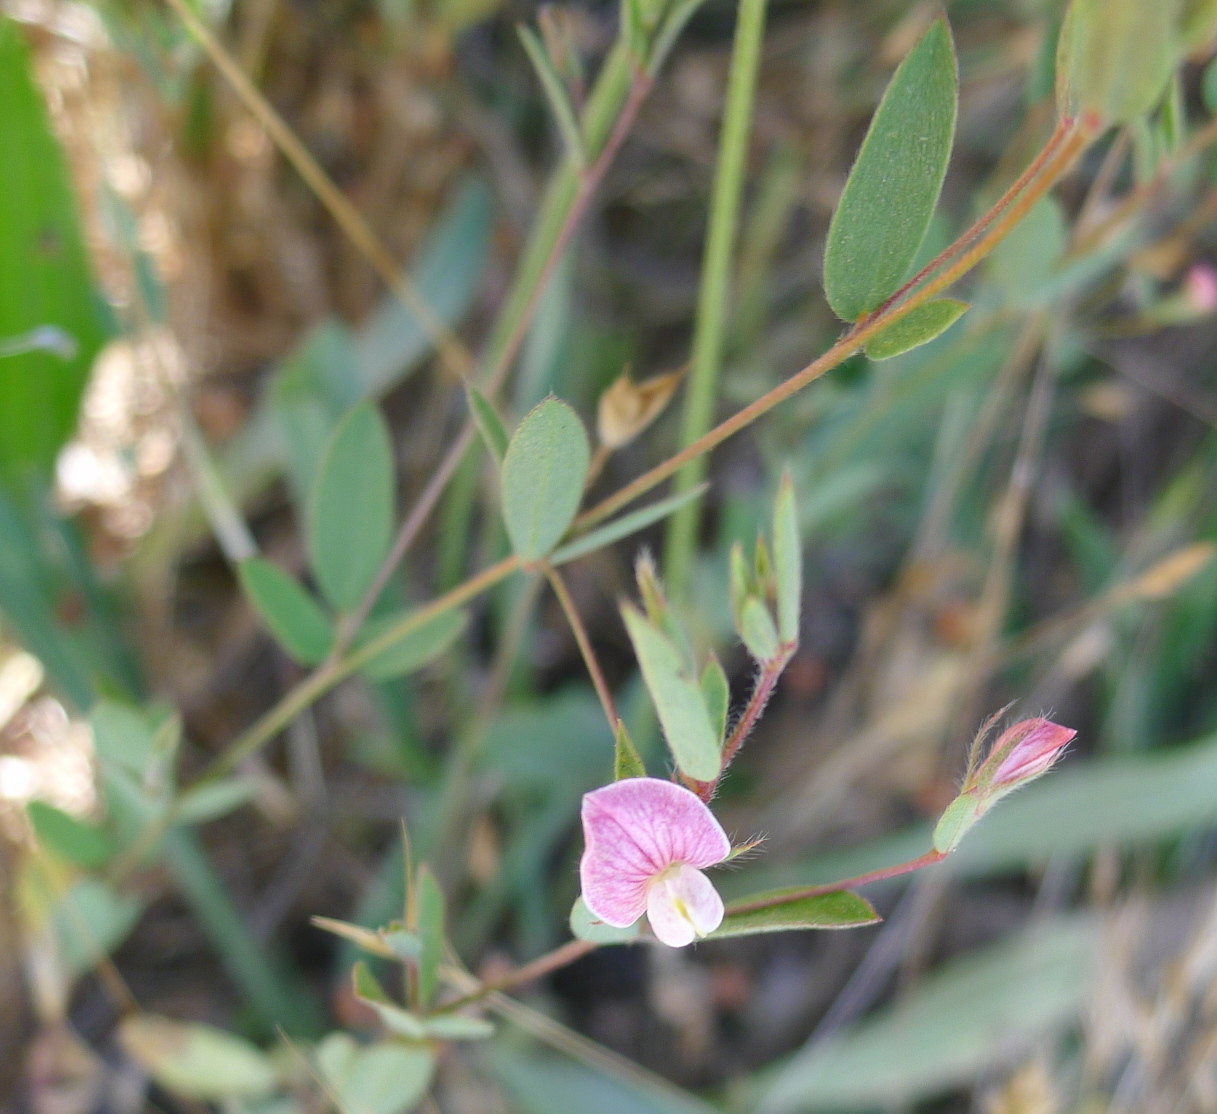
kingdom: Plantae
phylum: Tracheophyta
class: Magnoliopsida
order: Fabales
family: Fabaceae
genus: Acmispon
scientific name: Acmispon americanus
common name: American bird's-foot trefoil
